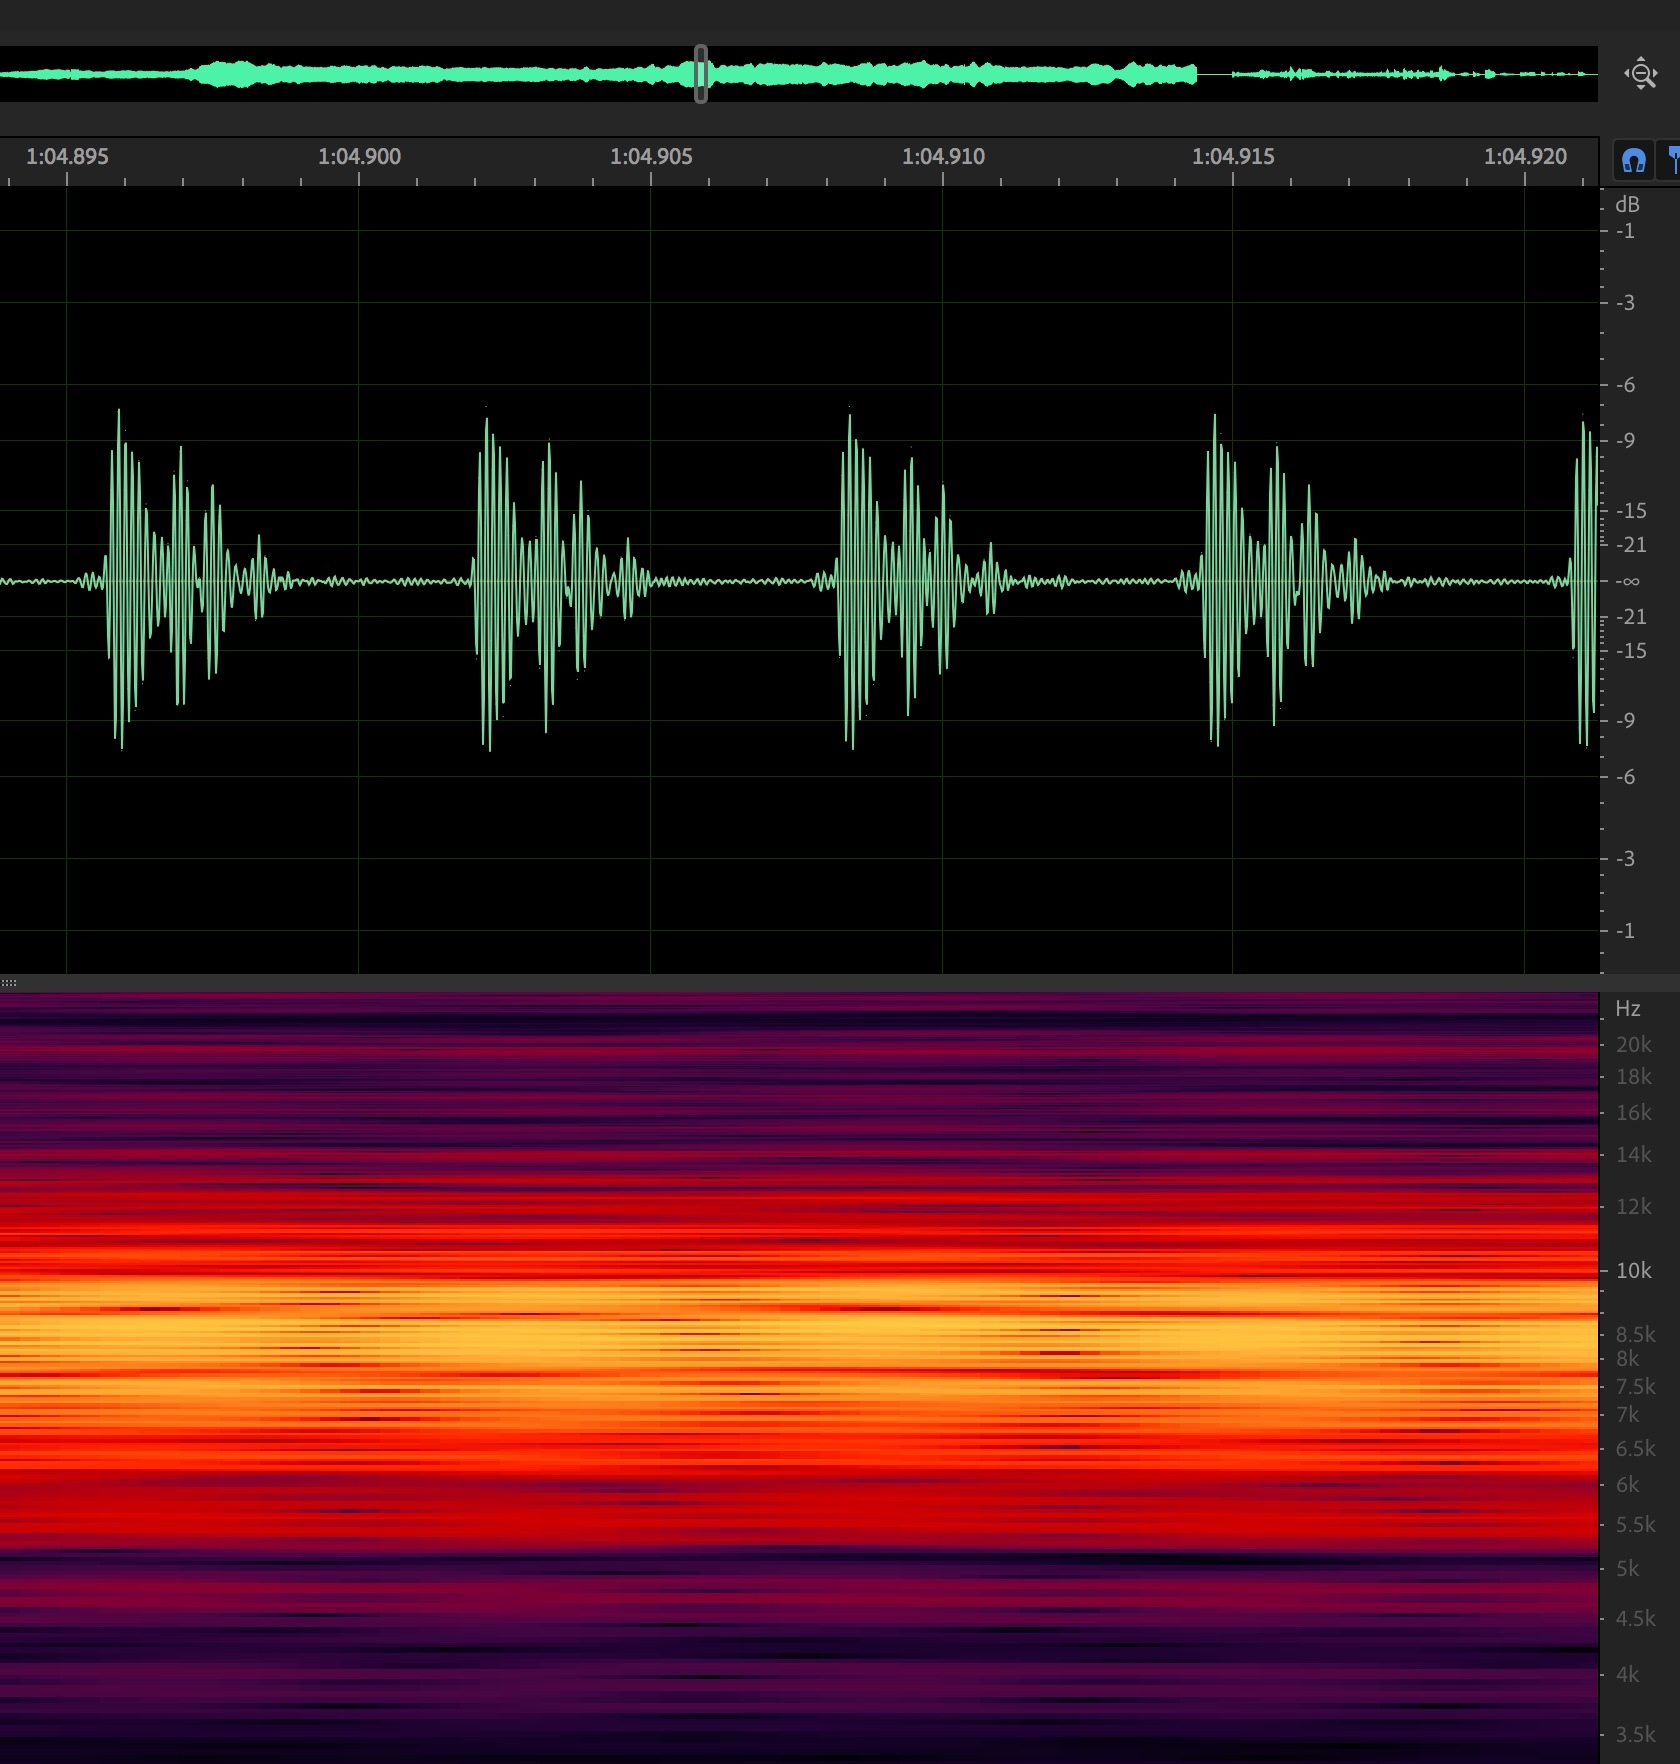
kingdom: Animalia
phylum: Arthropoda
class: Insecta
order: Hemiptera
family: Cicadidae
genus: Diceroprocta
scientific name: Diceroprocta aurantiaca
